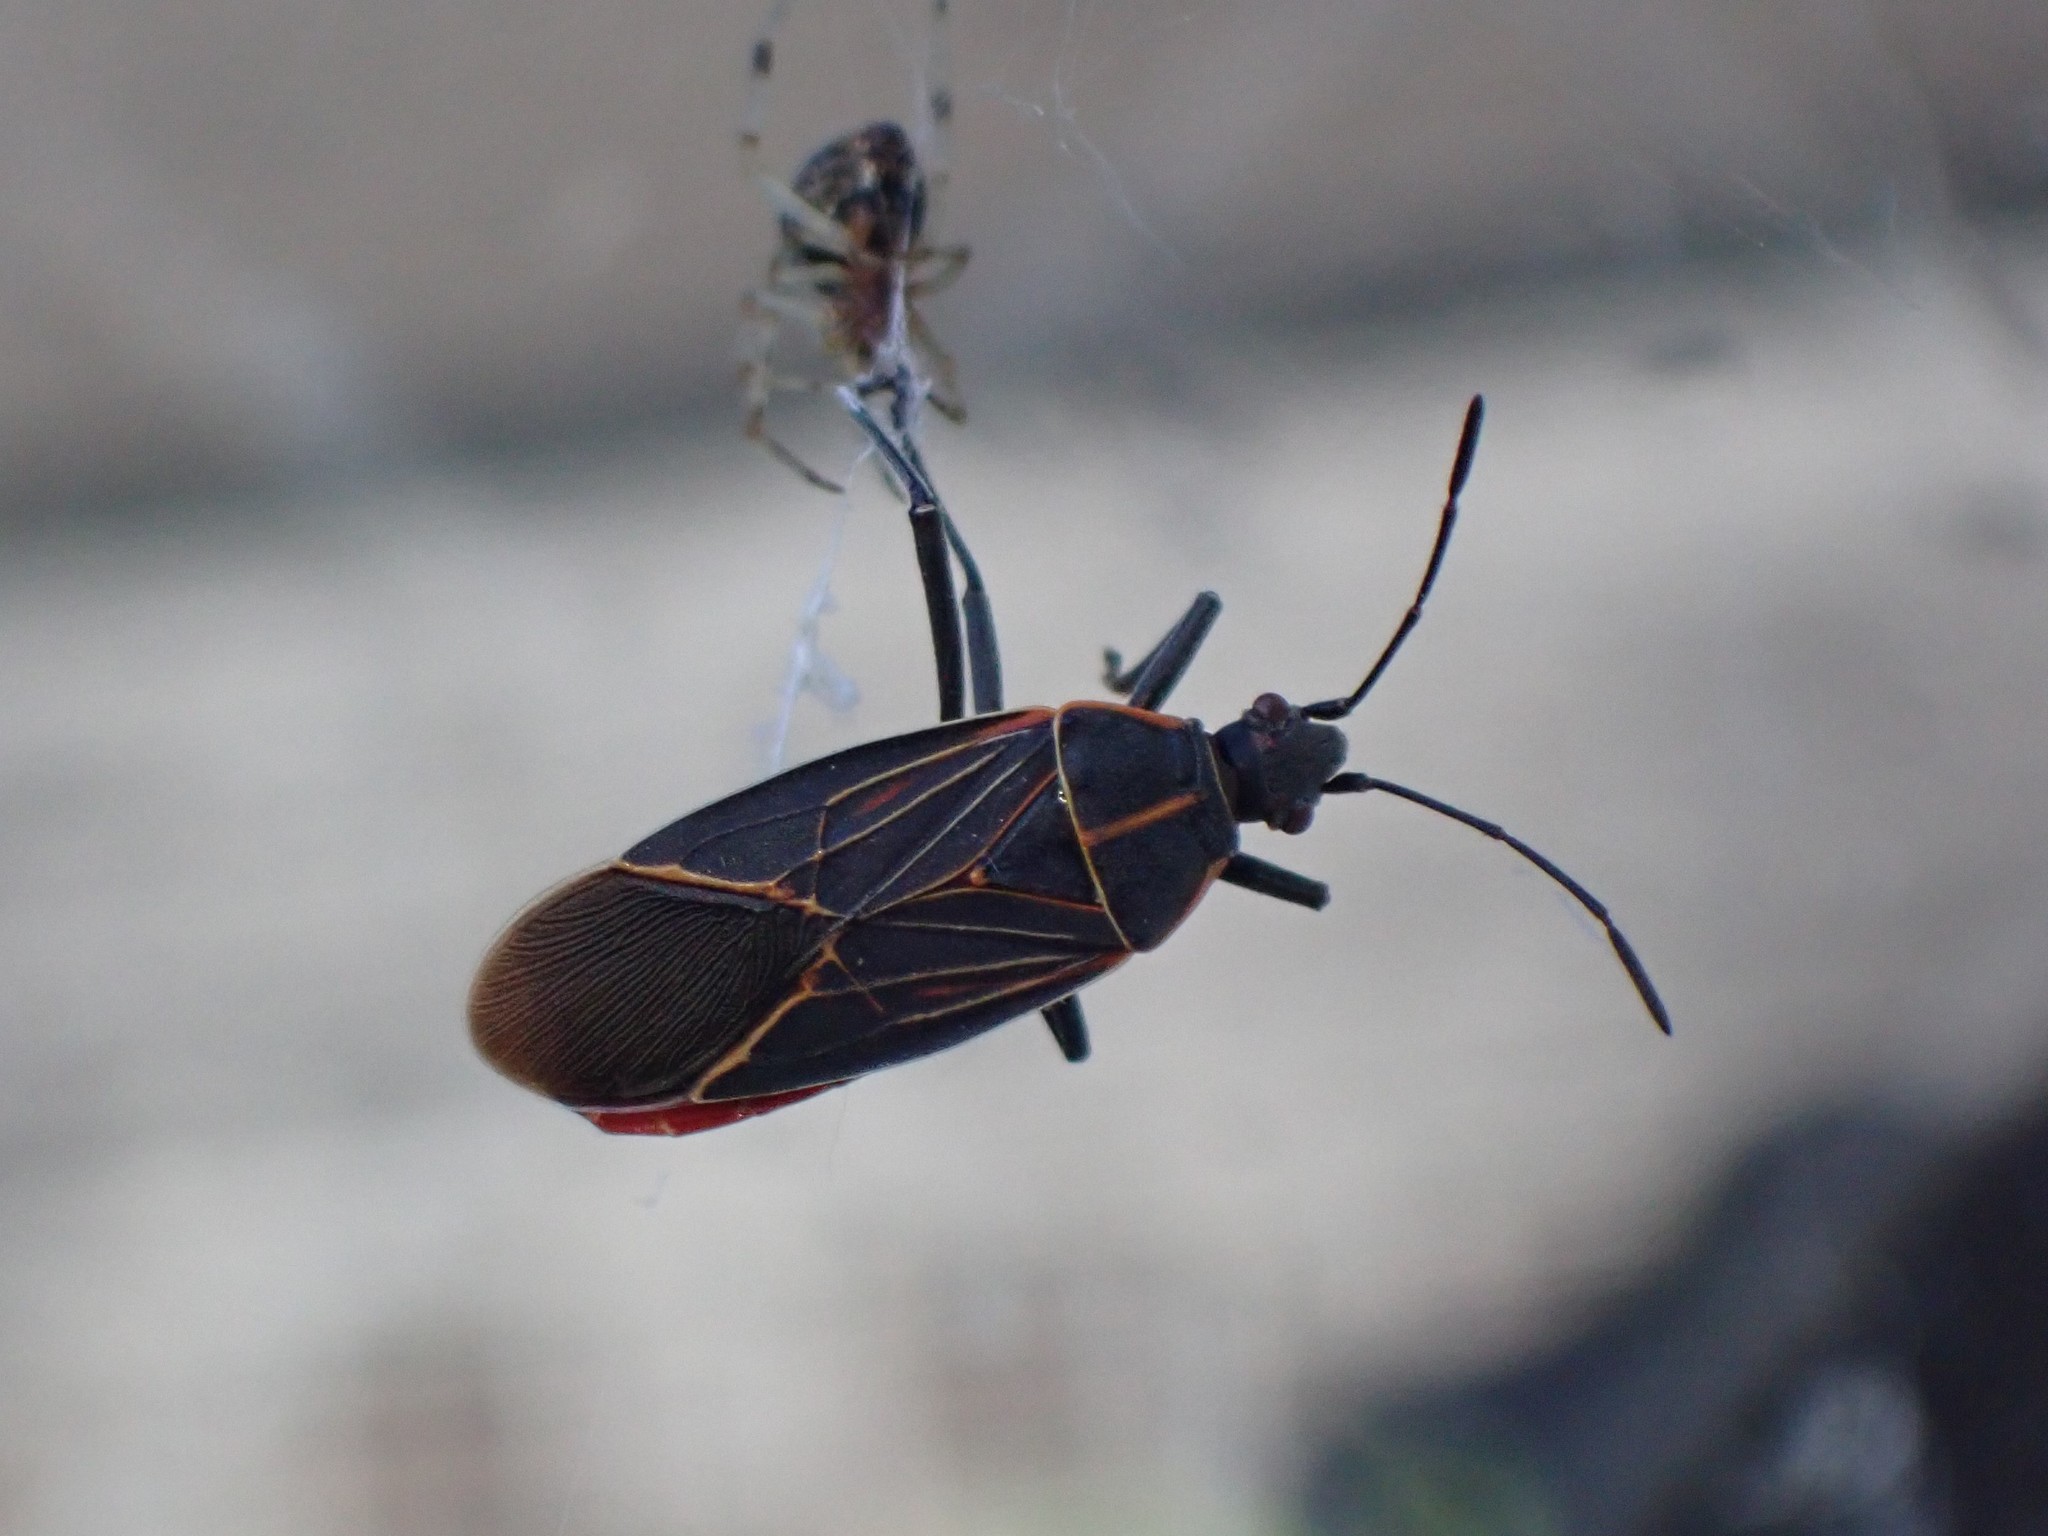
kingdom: Animalia
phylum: Arthropoda
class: Insecta
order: Hemiptera
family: Rhopalidae
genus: Boisea
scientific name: Boisea rubrolineata
